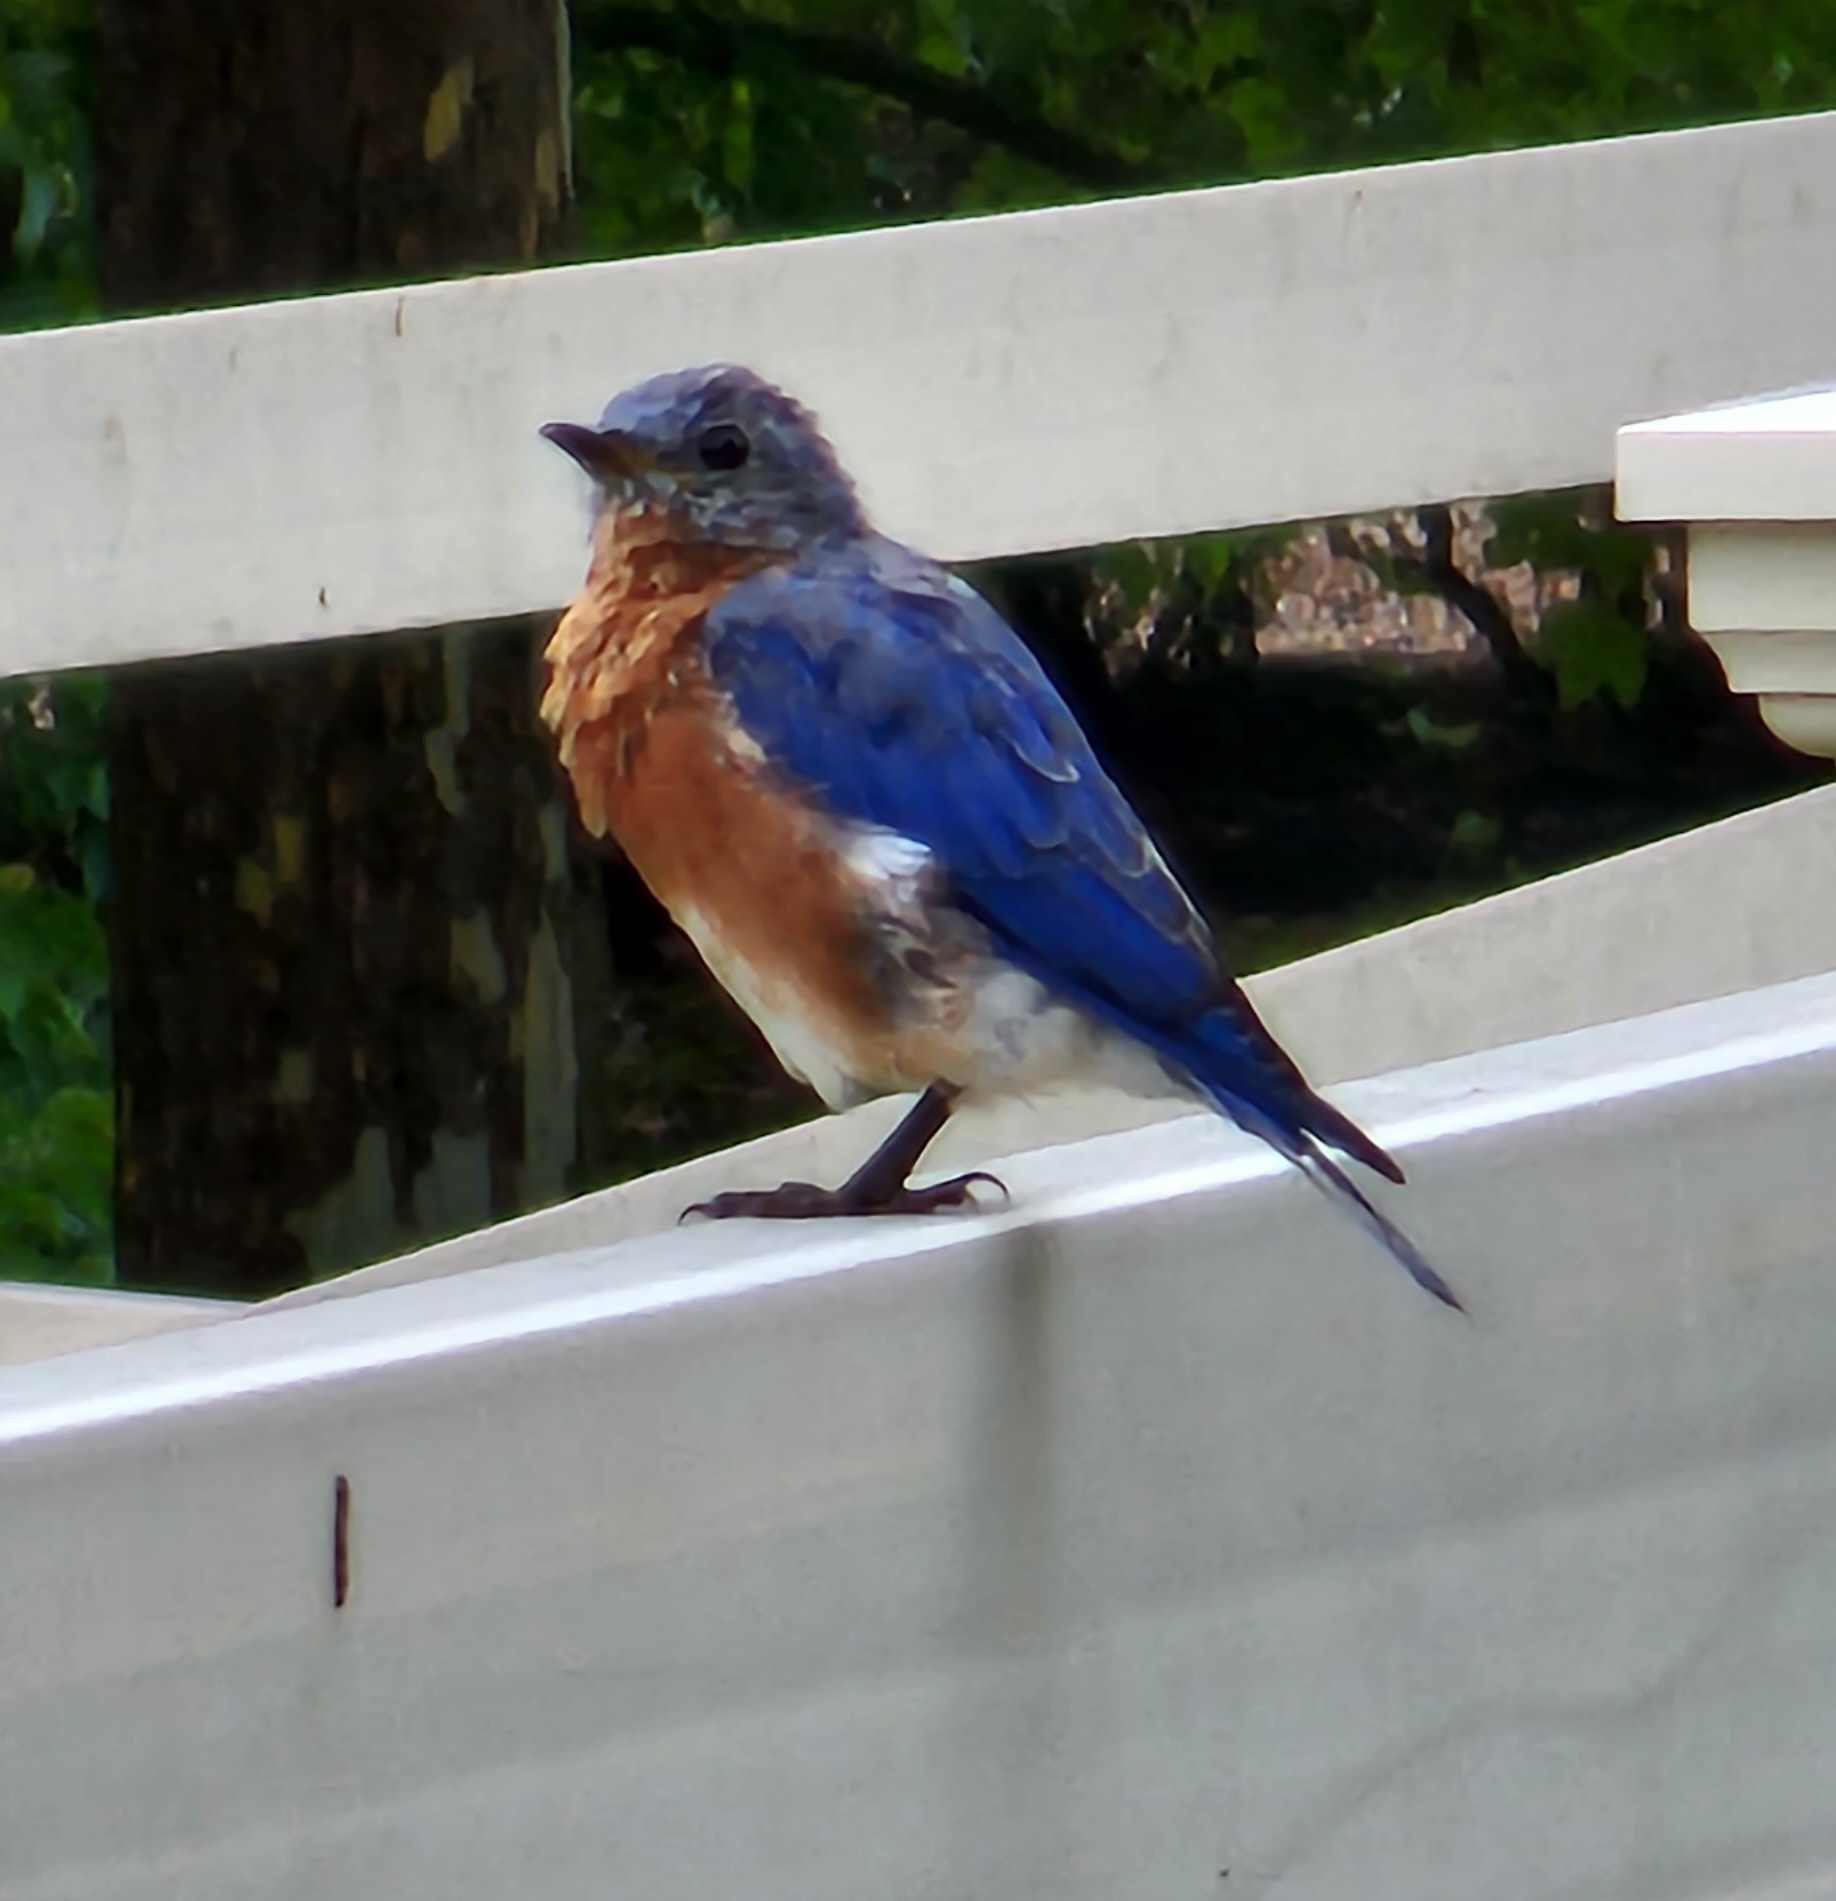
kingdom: Animalia
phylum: Chordata
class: Aves
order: Passeriformes
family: Turdidae
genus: Sialia
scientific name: Sialia sialis
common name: Eastern bluebird
